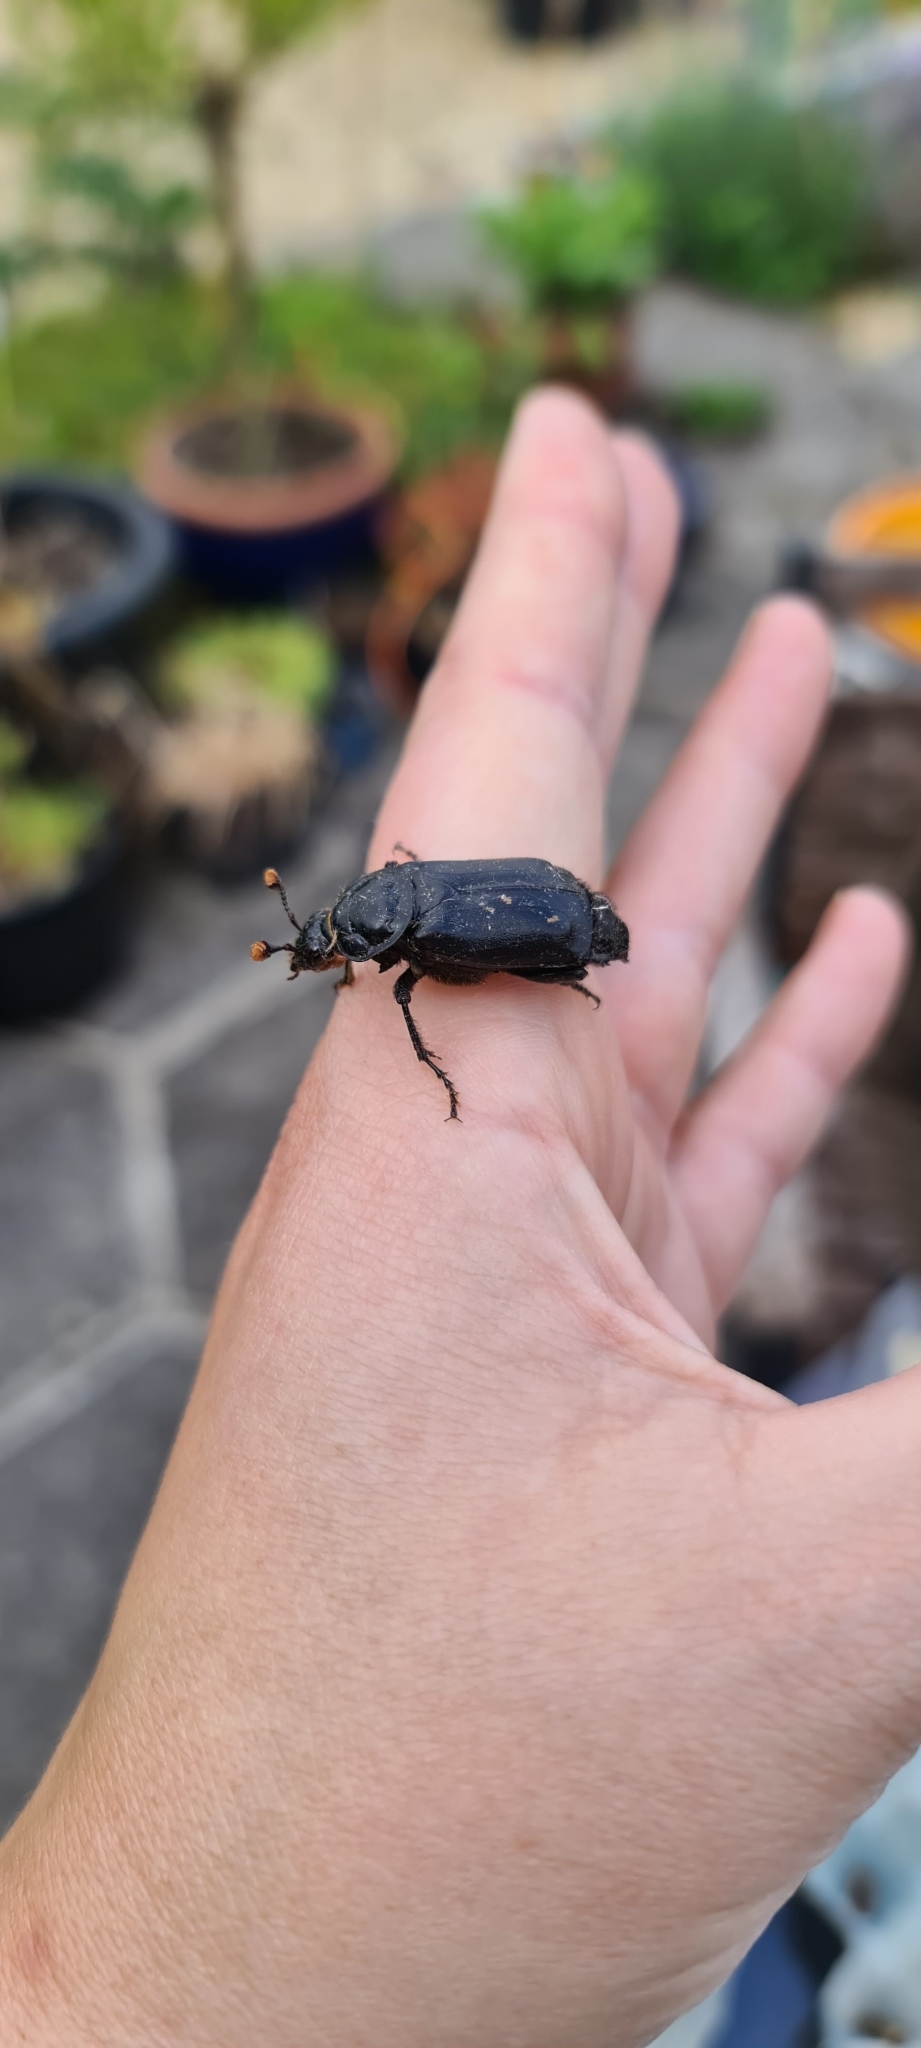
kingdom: Animalia
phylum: Arthropoda
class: Insecta
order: Coleoptera
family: Staphylinidae
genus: Nicrophorus
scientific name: Nicrophorus humator
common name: Black sexton beetle
